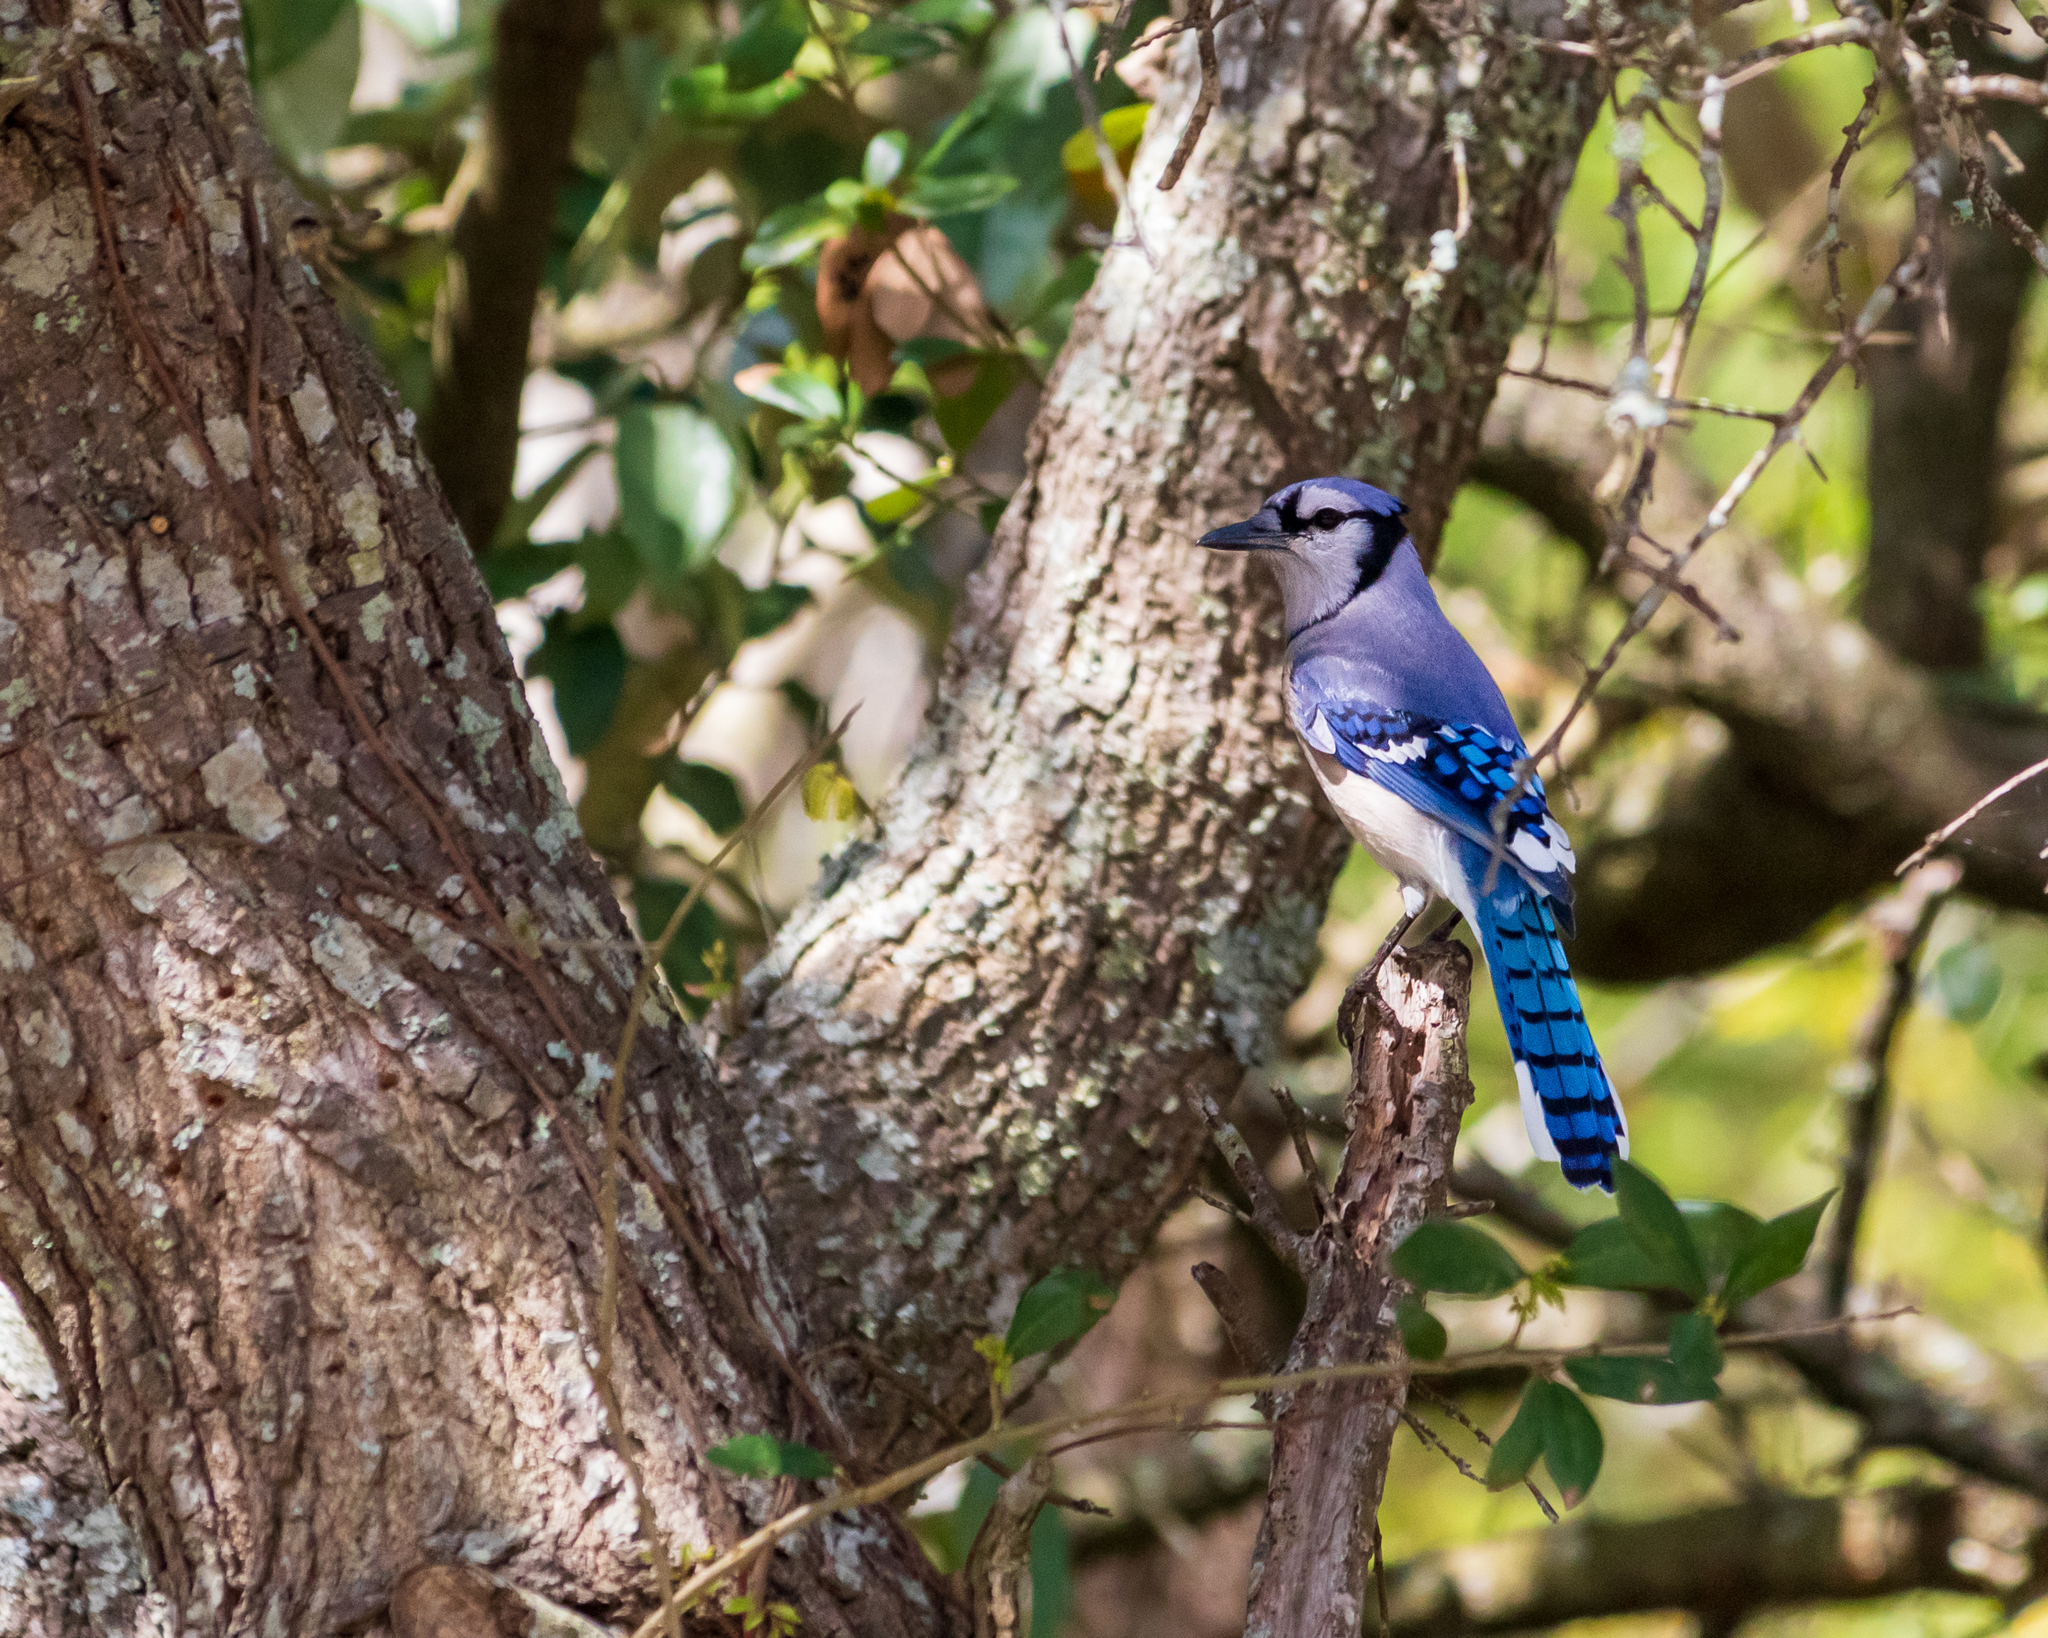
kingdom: Animalia
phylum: Chordata
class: Aves
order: Passeriformes
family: Corvidae
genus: Cyanocitta
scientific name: Cyanocitta cristata
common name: Blue jay
